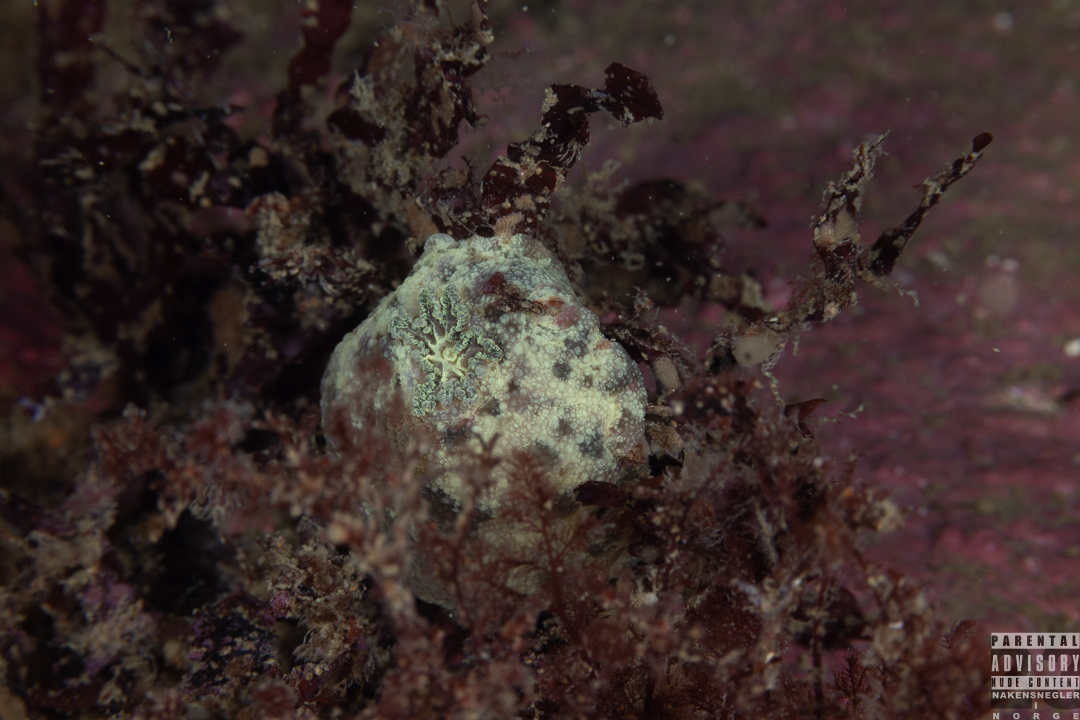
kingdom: Animalia
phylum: Mollusca
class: Gastropoda
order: Nudibranchia
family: Dorididae
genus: Doris
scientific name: Doris pseudoargus
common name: Sea lemon
